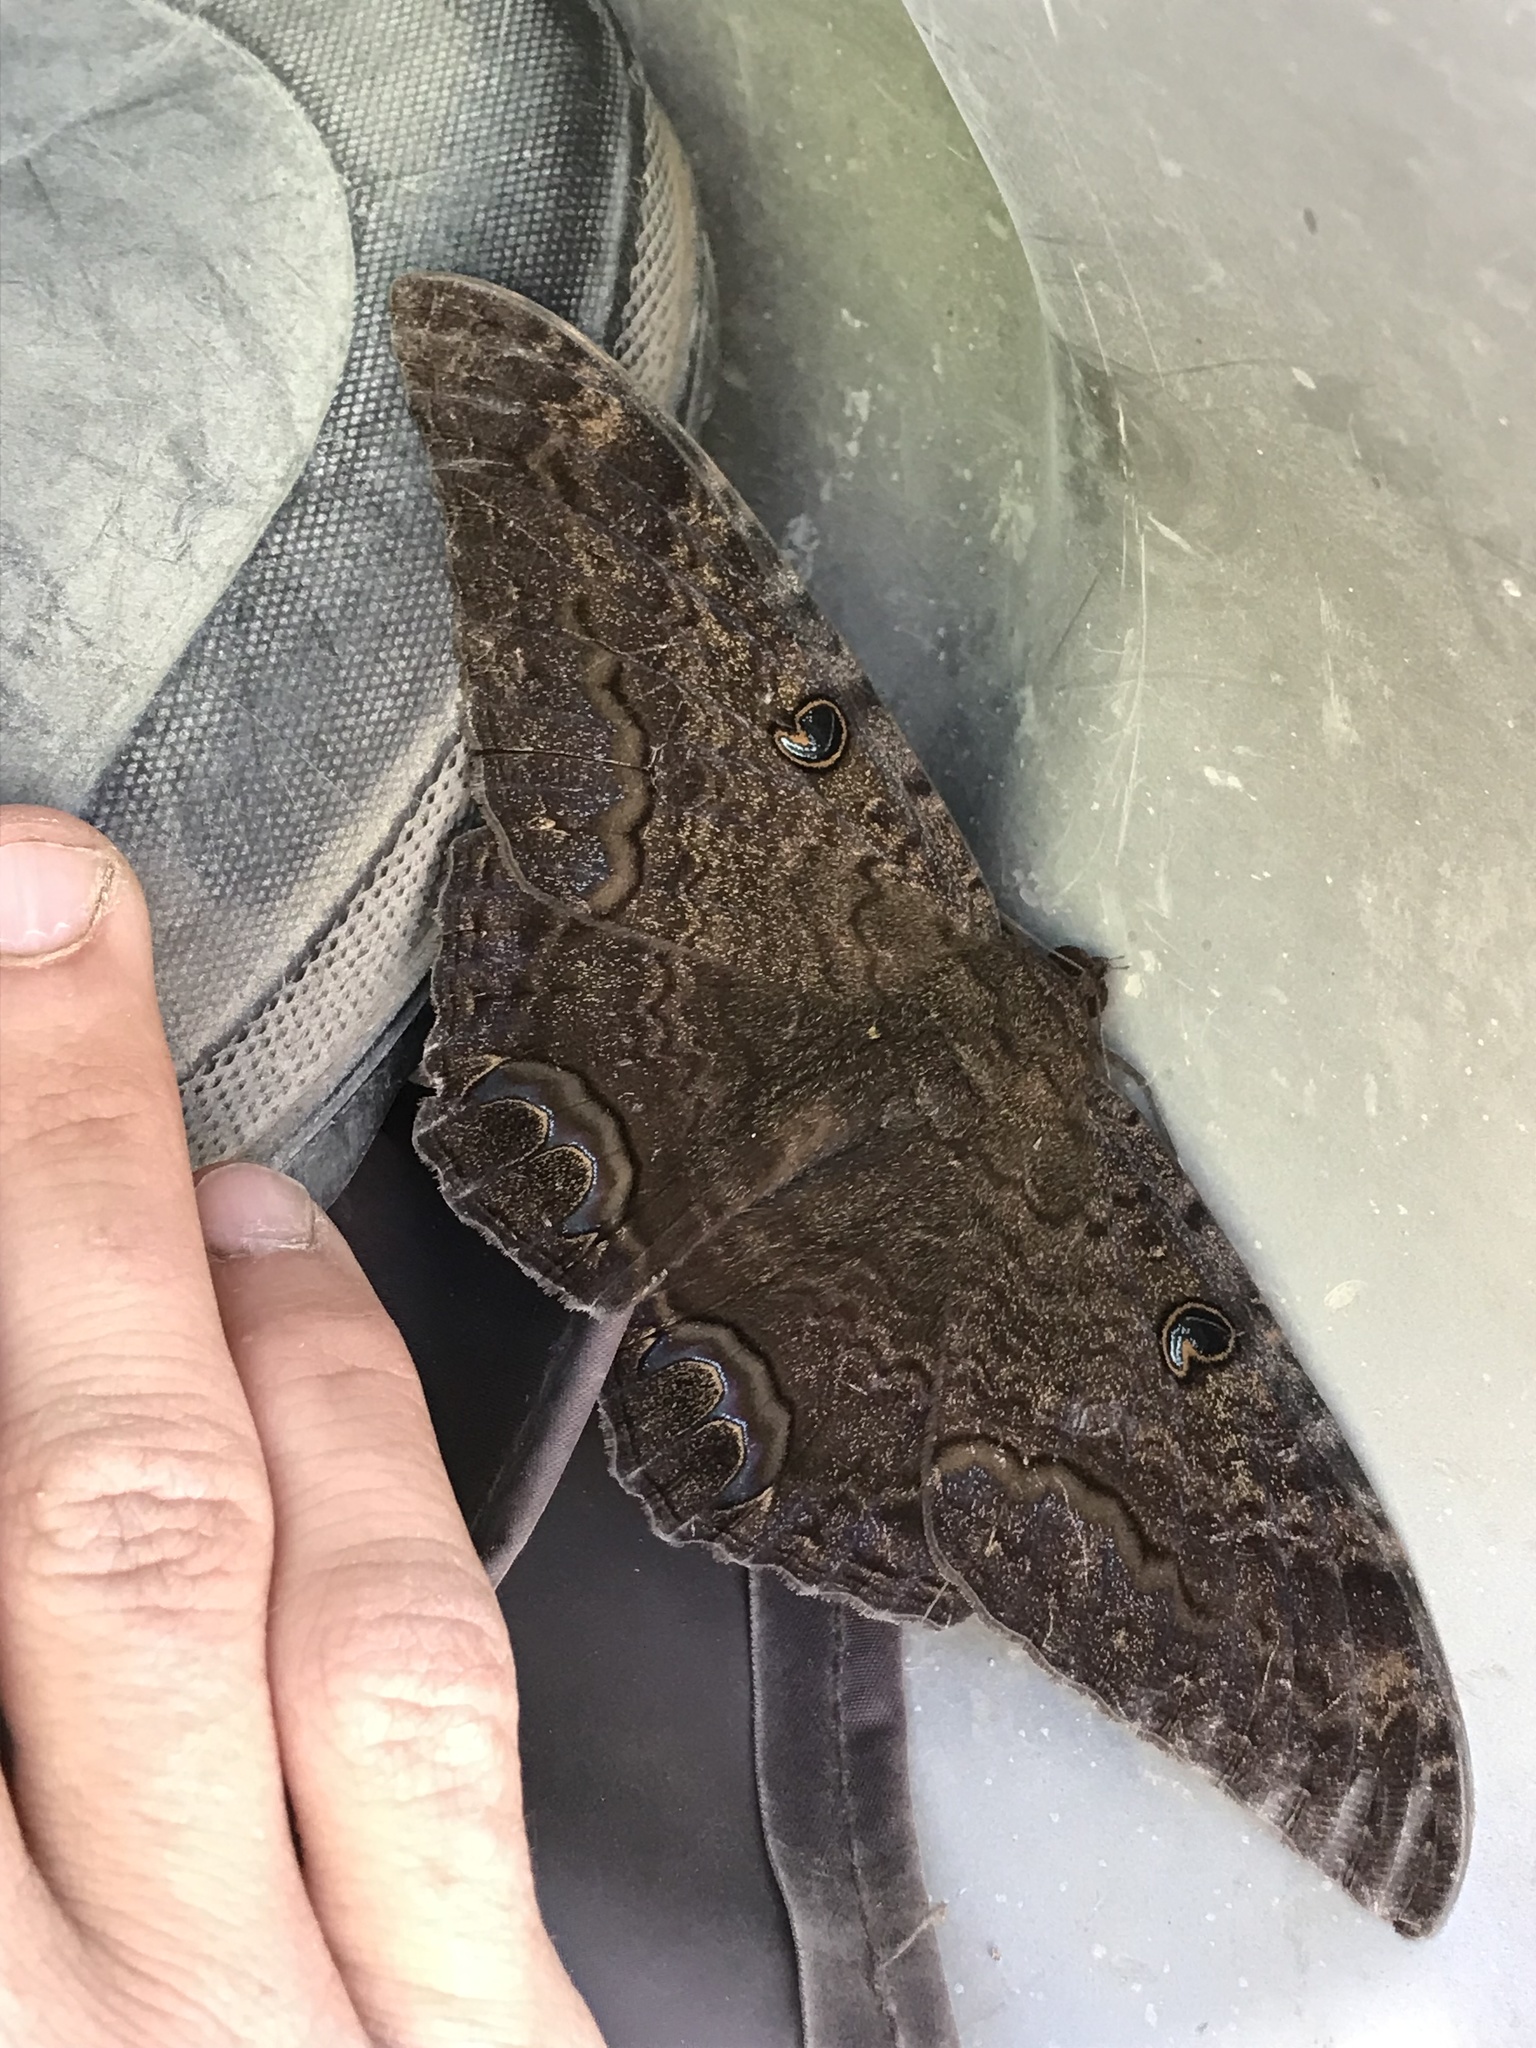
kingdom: Animalia
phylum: Arthropoda
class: Insecta
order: Lepidoptera
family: Erebidae
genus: Ascalapha
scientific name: Ascalapha odorata
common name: Black witch
